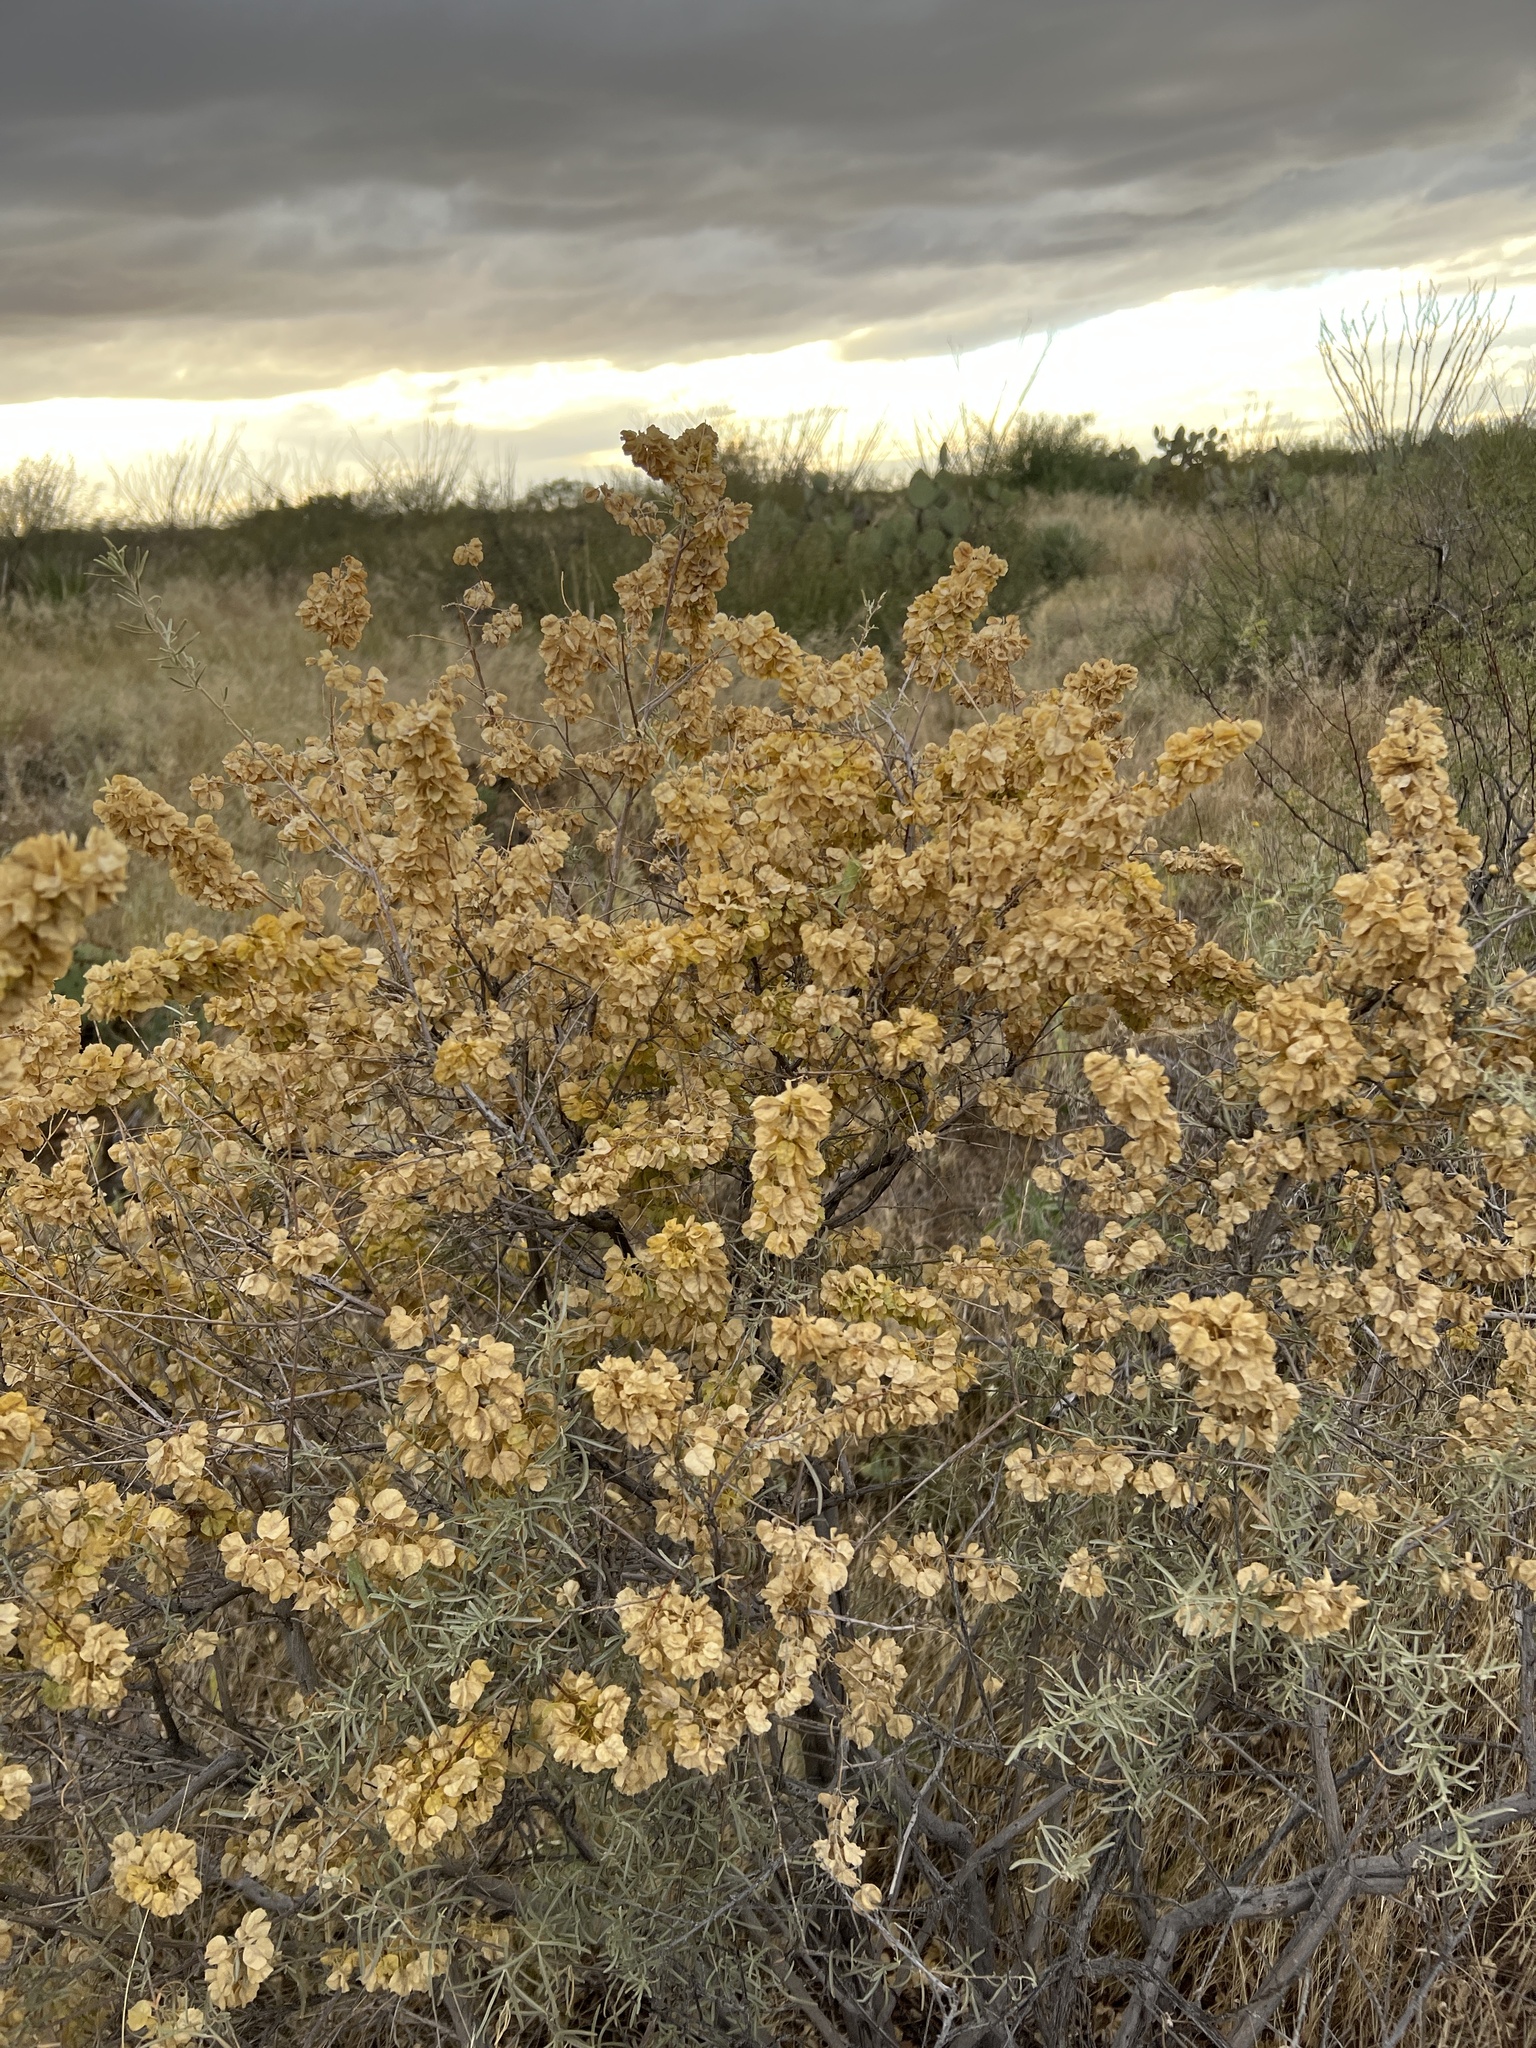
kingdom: Plantae
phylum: Tracheophyta
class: Magnoliopsida
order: Caryophyllales
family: Amaranthaceae
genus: Atriplex
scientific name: Atriplex canescens
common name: Four-wing saltbush
